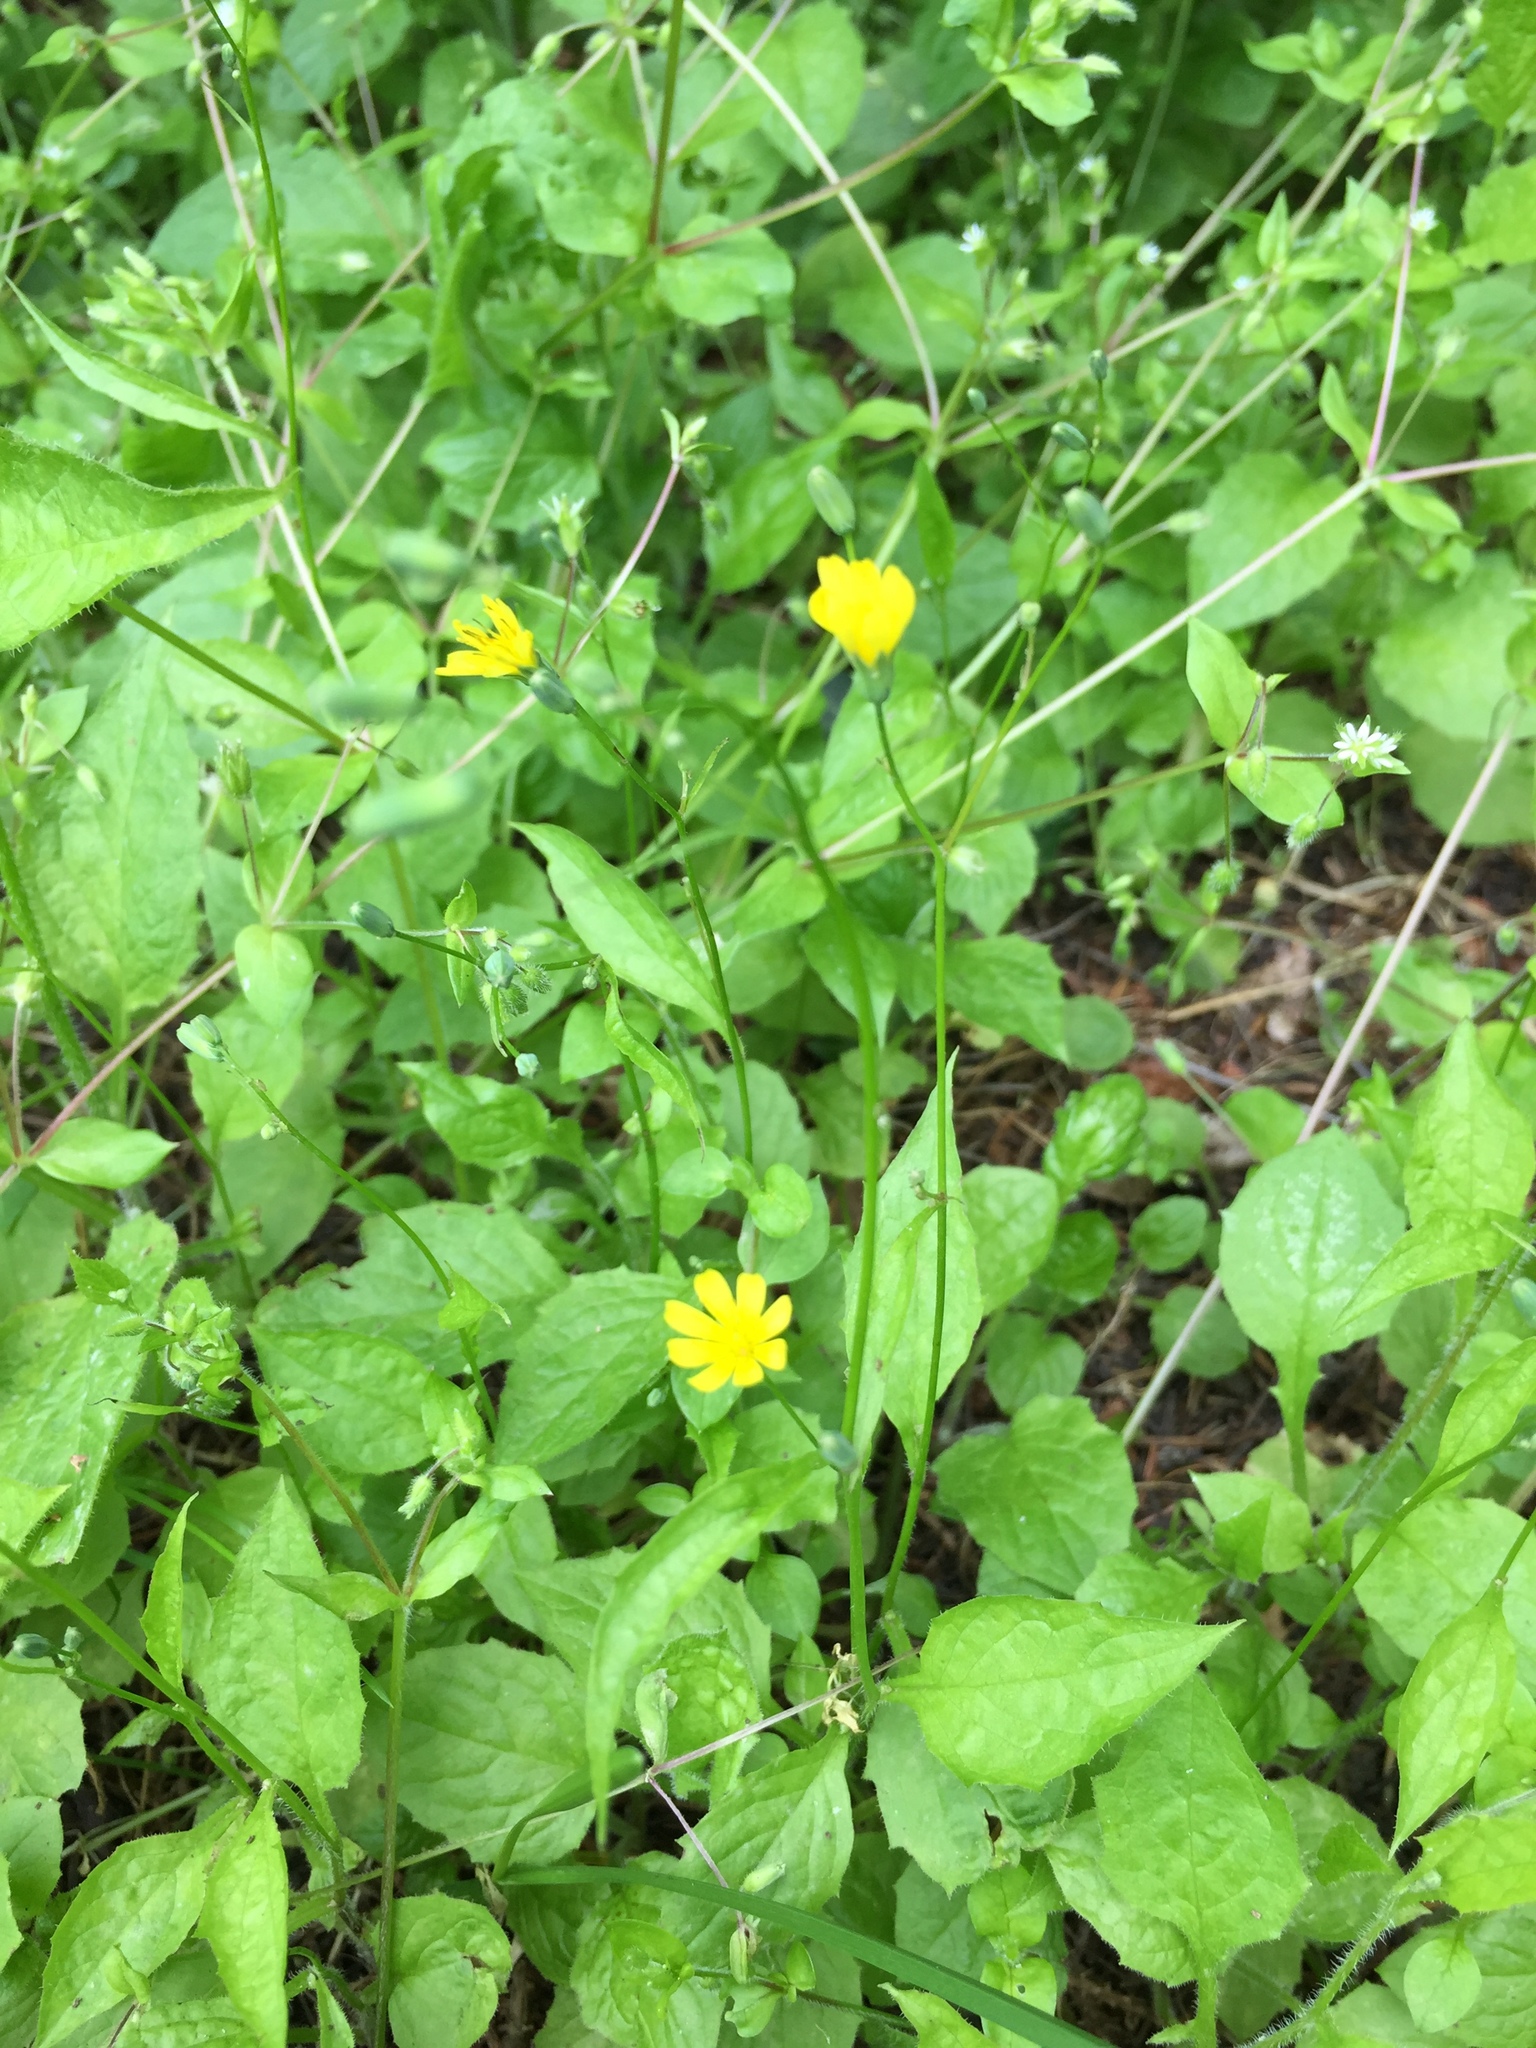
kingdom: Plantae
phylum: Tracheophyta
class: Magnoliopsida
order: Asterales
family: Asteraceae
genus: Lapsana
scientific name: Lapsana communis
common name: Nipplewort
